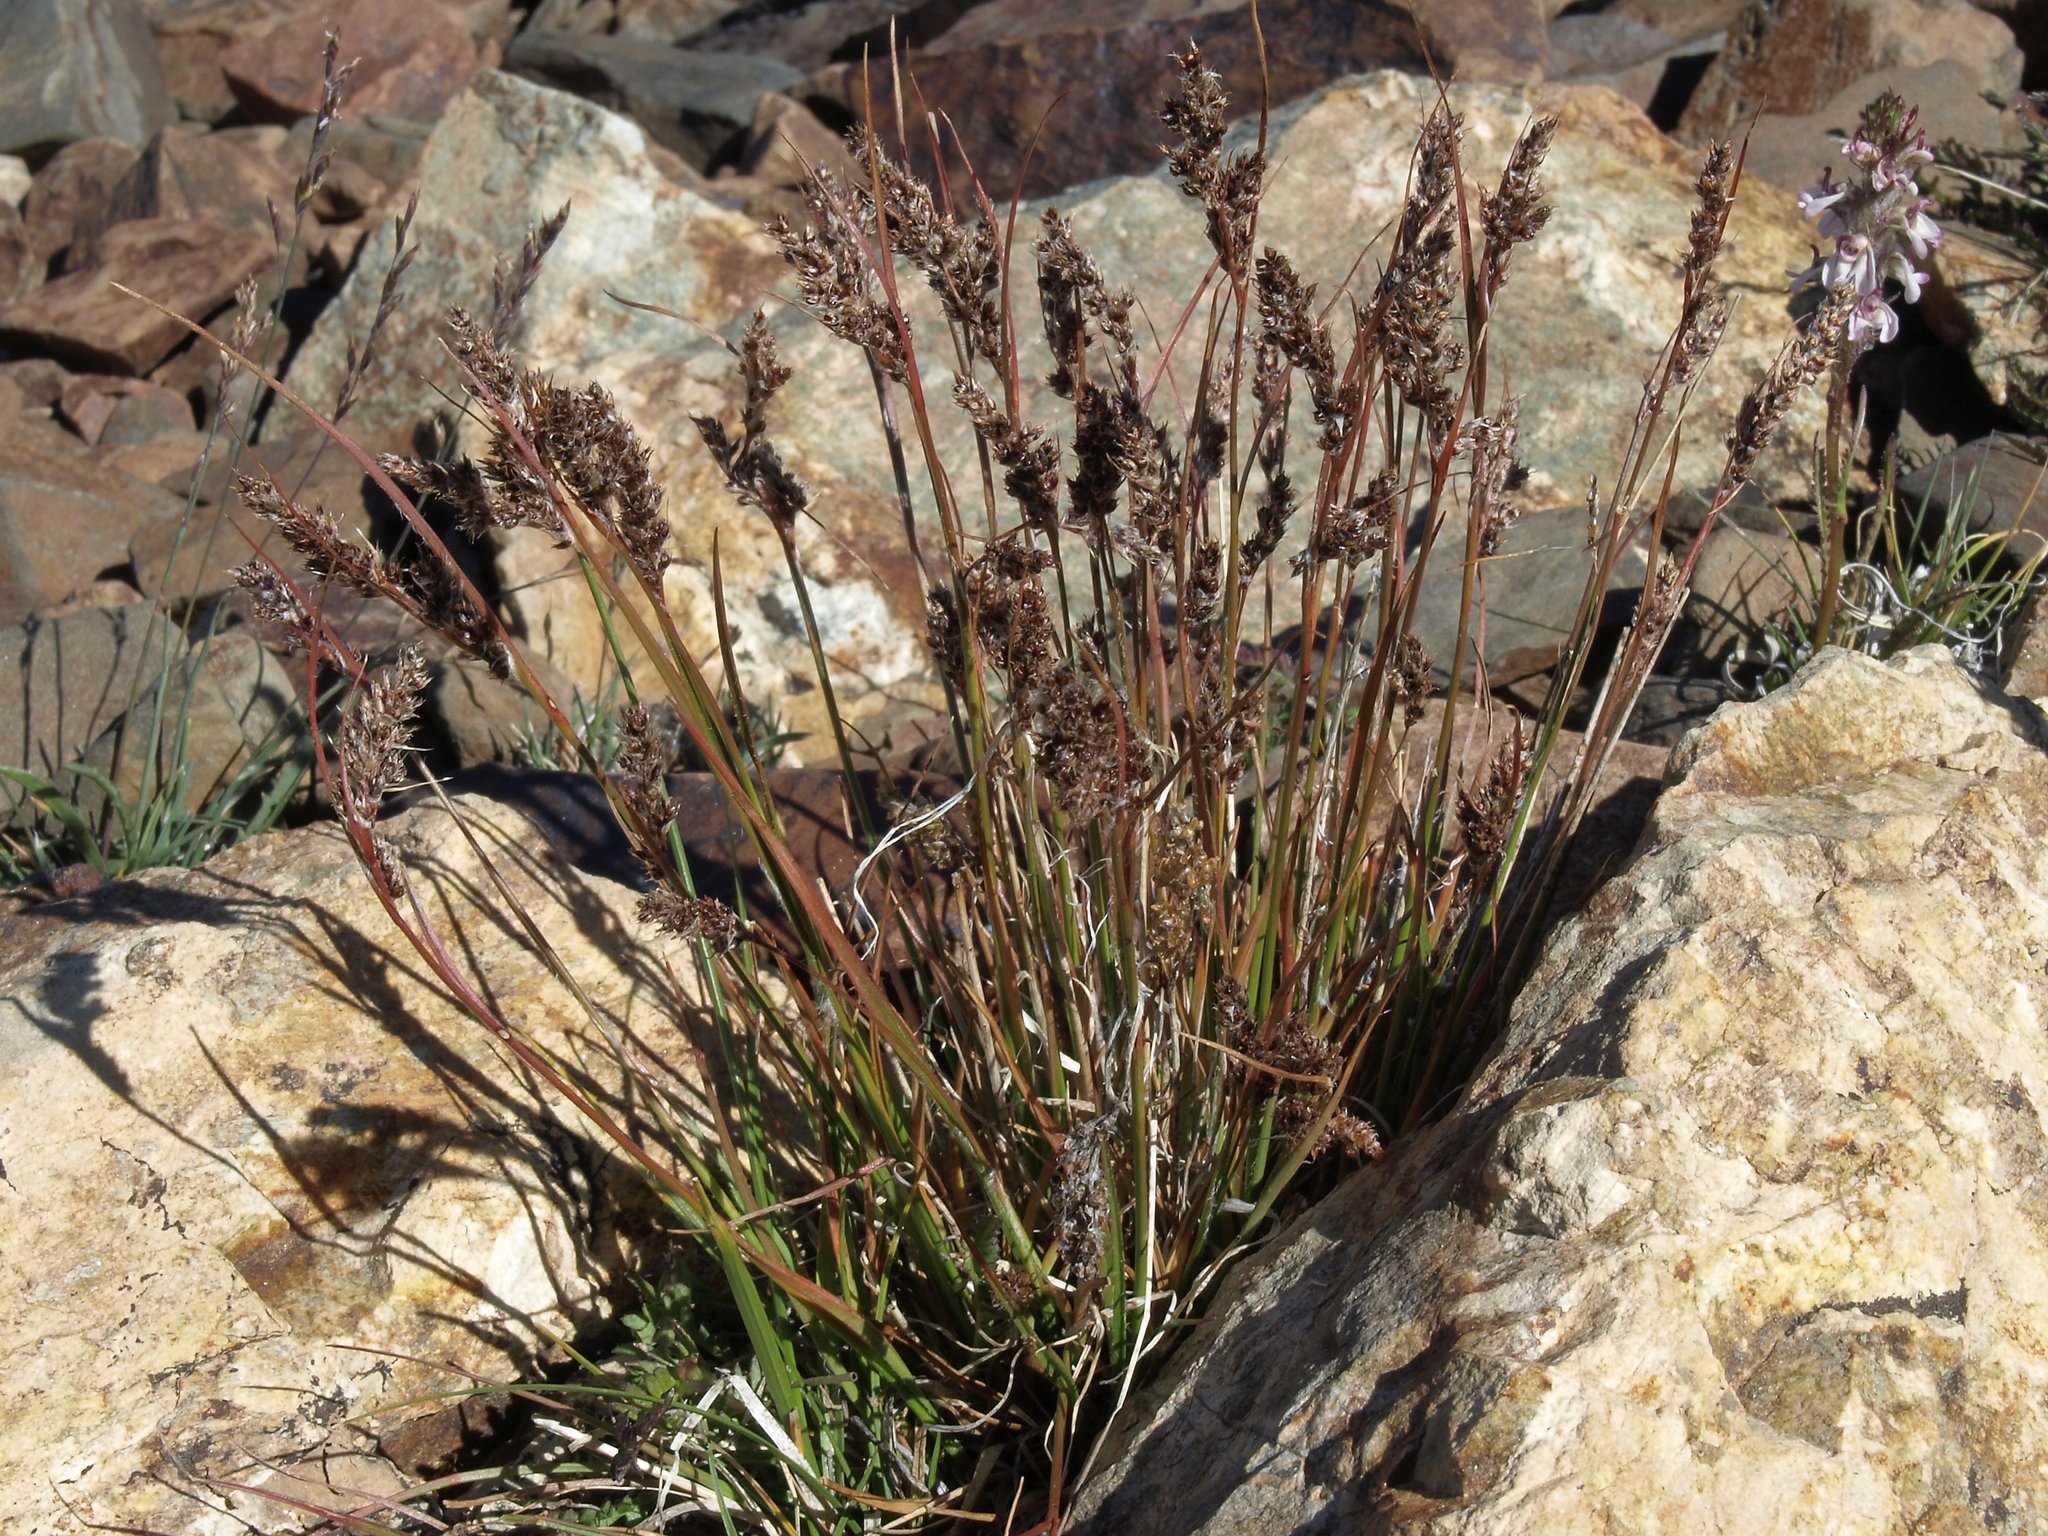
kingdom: Plantae
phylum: Tracheophyta
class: Liliopsida
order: Poales
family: Juncaceae
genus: Luzula
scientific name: Luzula spicata
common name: Spiked wood-rush
